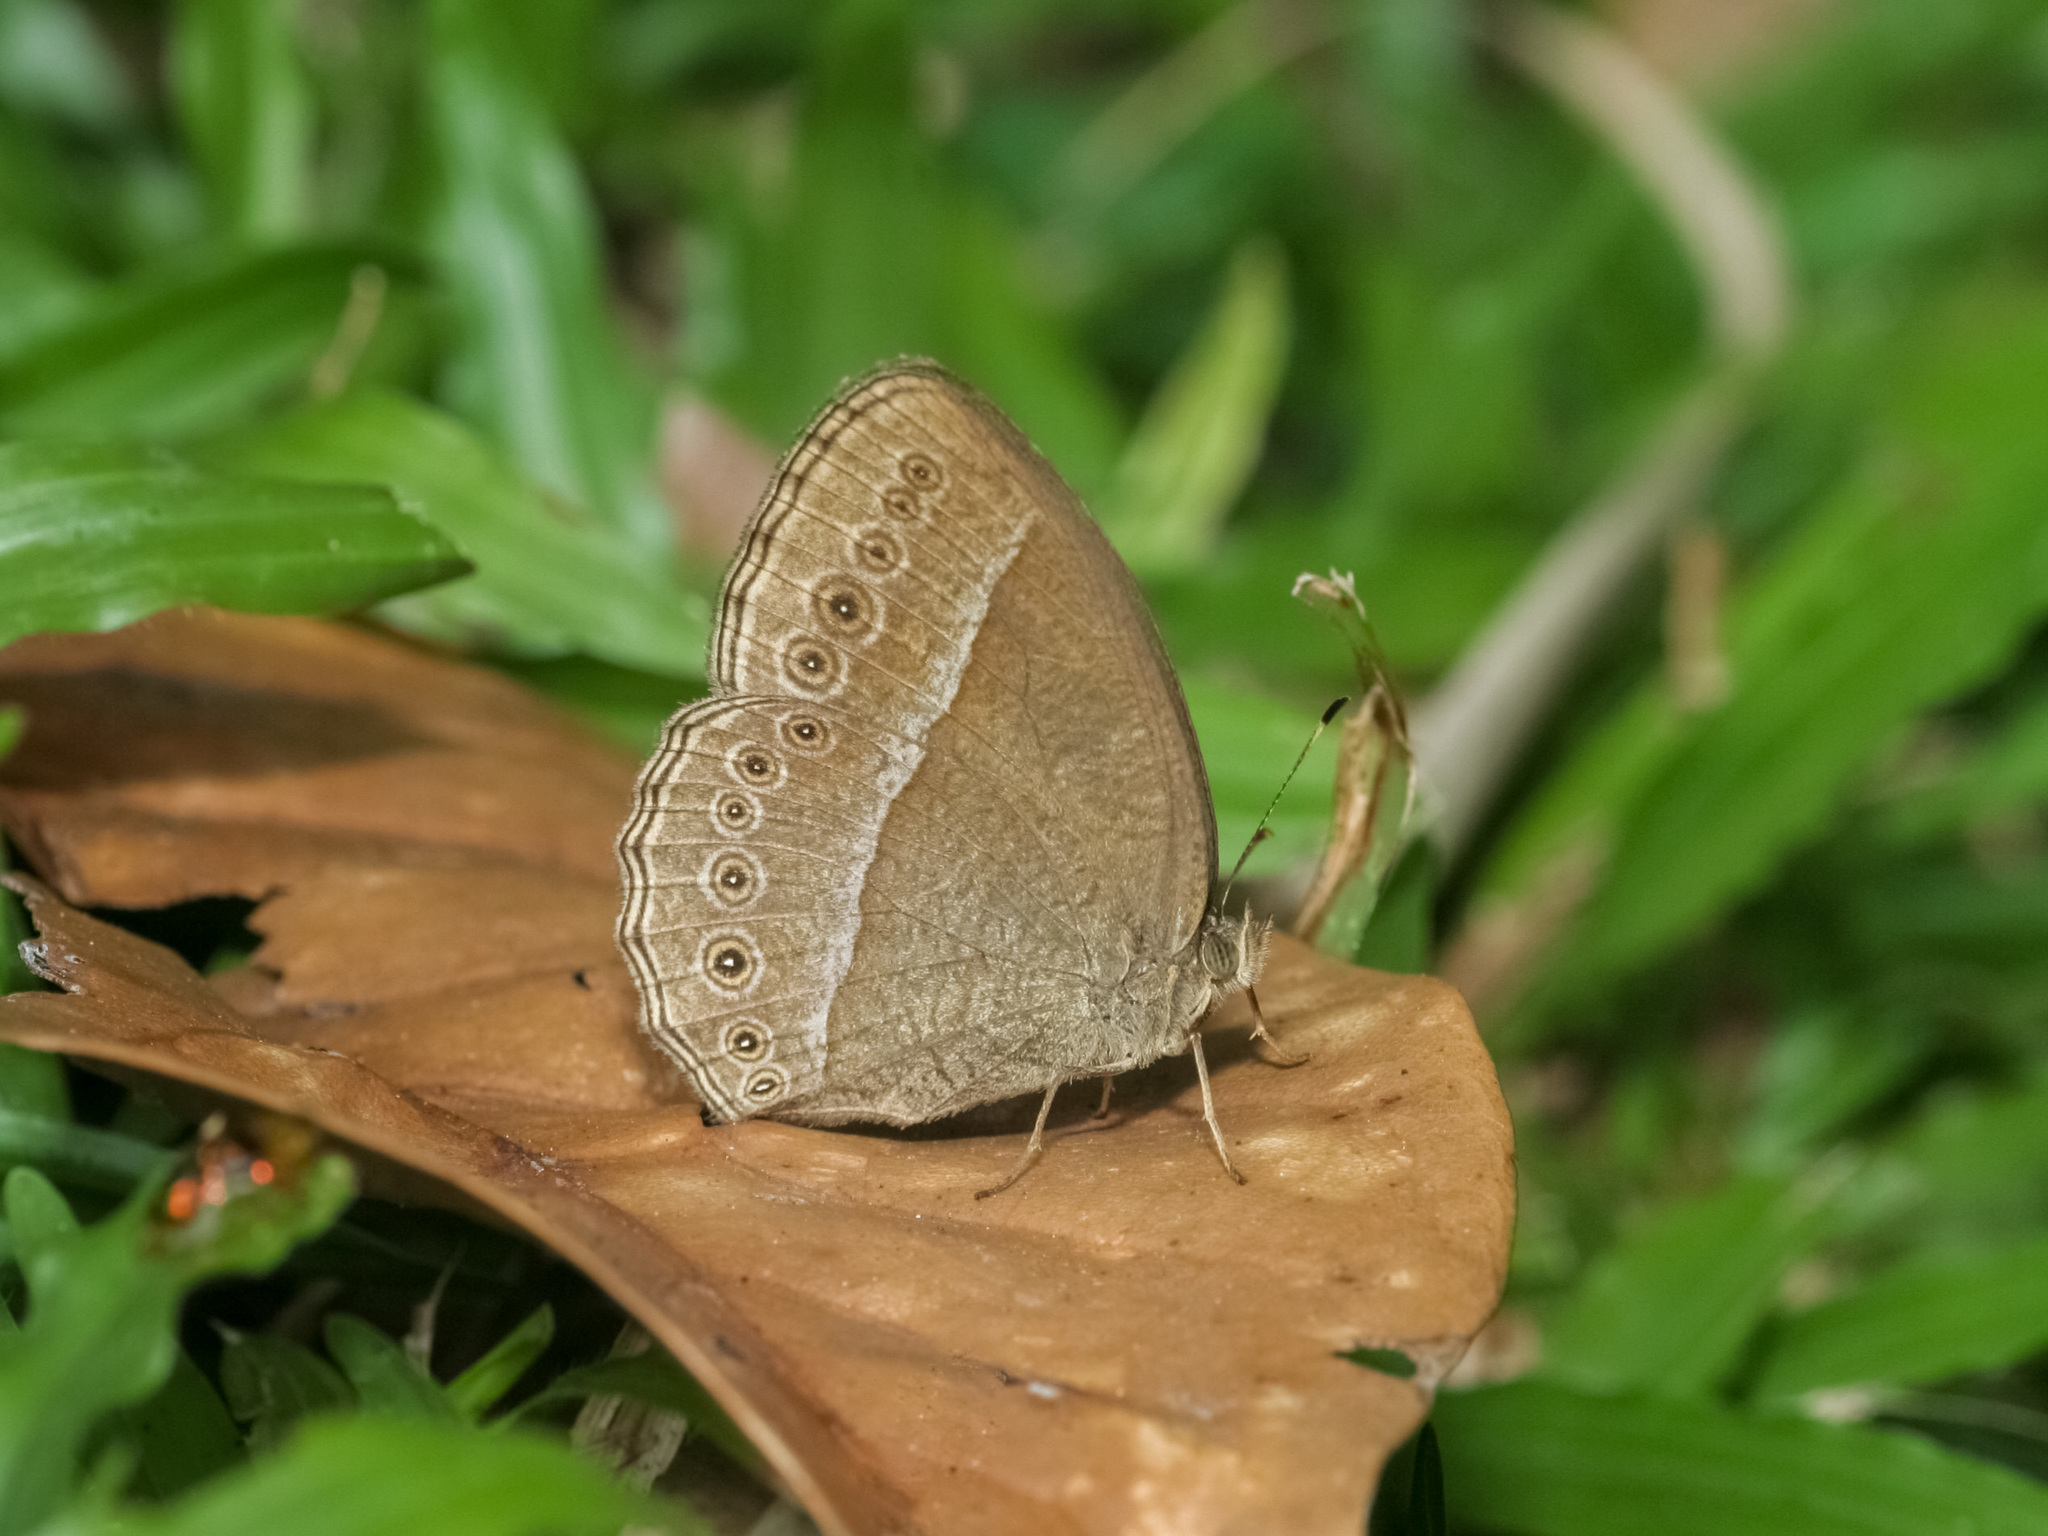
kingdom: Animalia
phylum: Arthropoda
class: Insecta
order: Lepidoptera
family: Nymphalidae
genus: Mycalesis
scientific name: Mycalesis Telinga janardana
